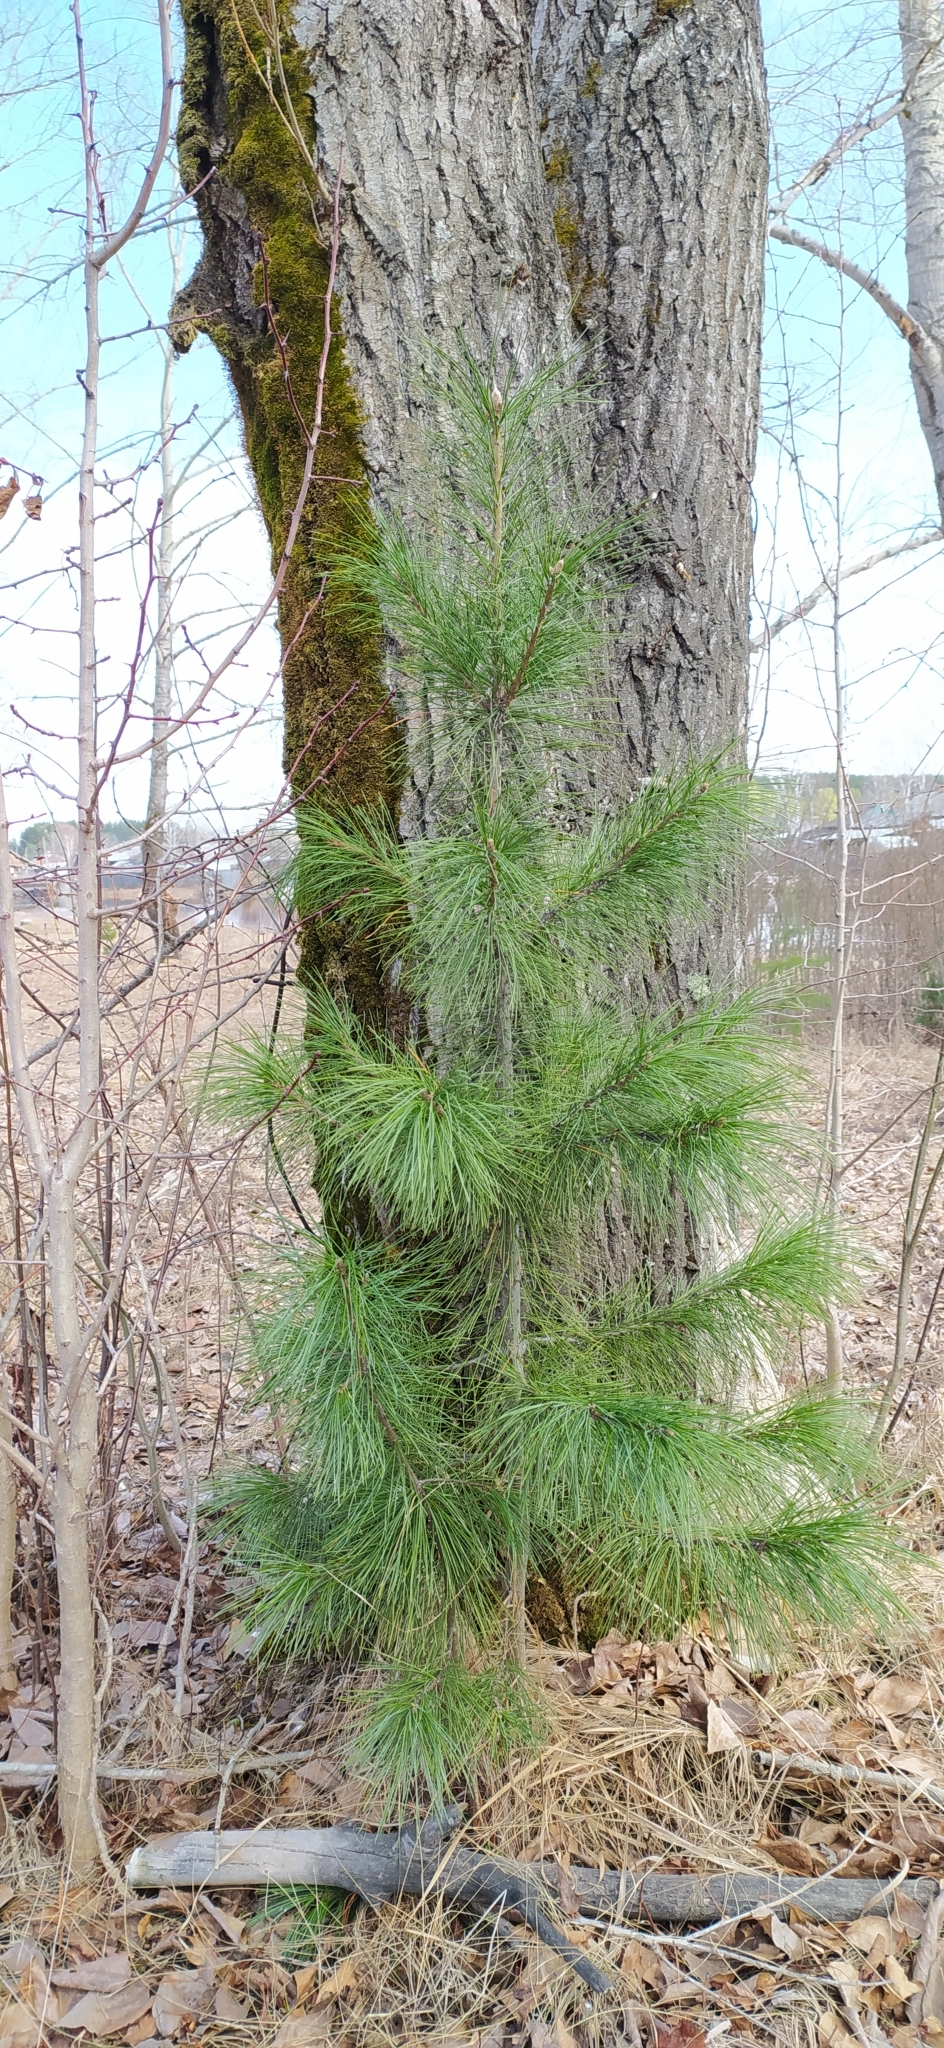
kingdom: Plantae
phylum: Tracheophyta
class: Pinopsida
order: Pinales
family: Pinaceae
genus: Pinus
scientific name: Pinus sibirica
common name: Siberian pine
